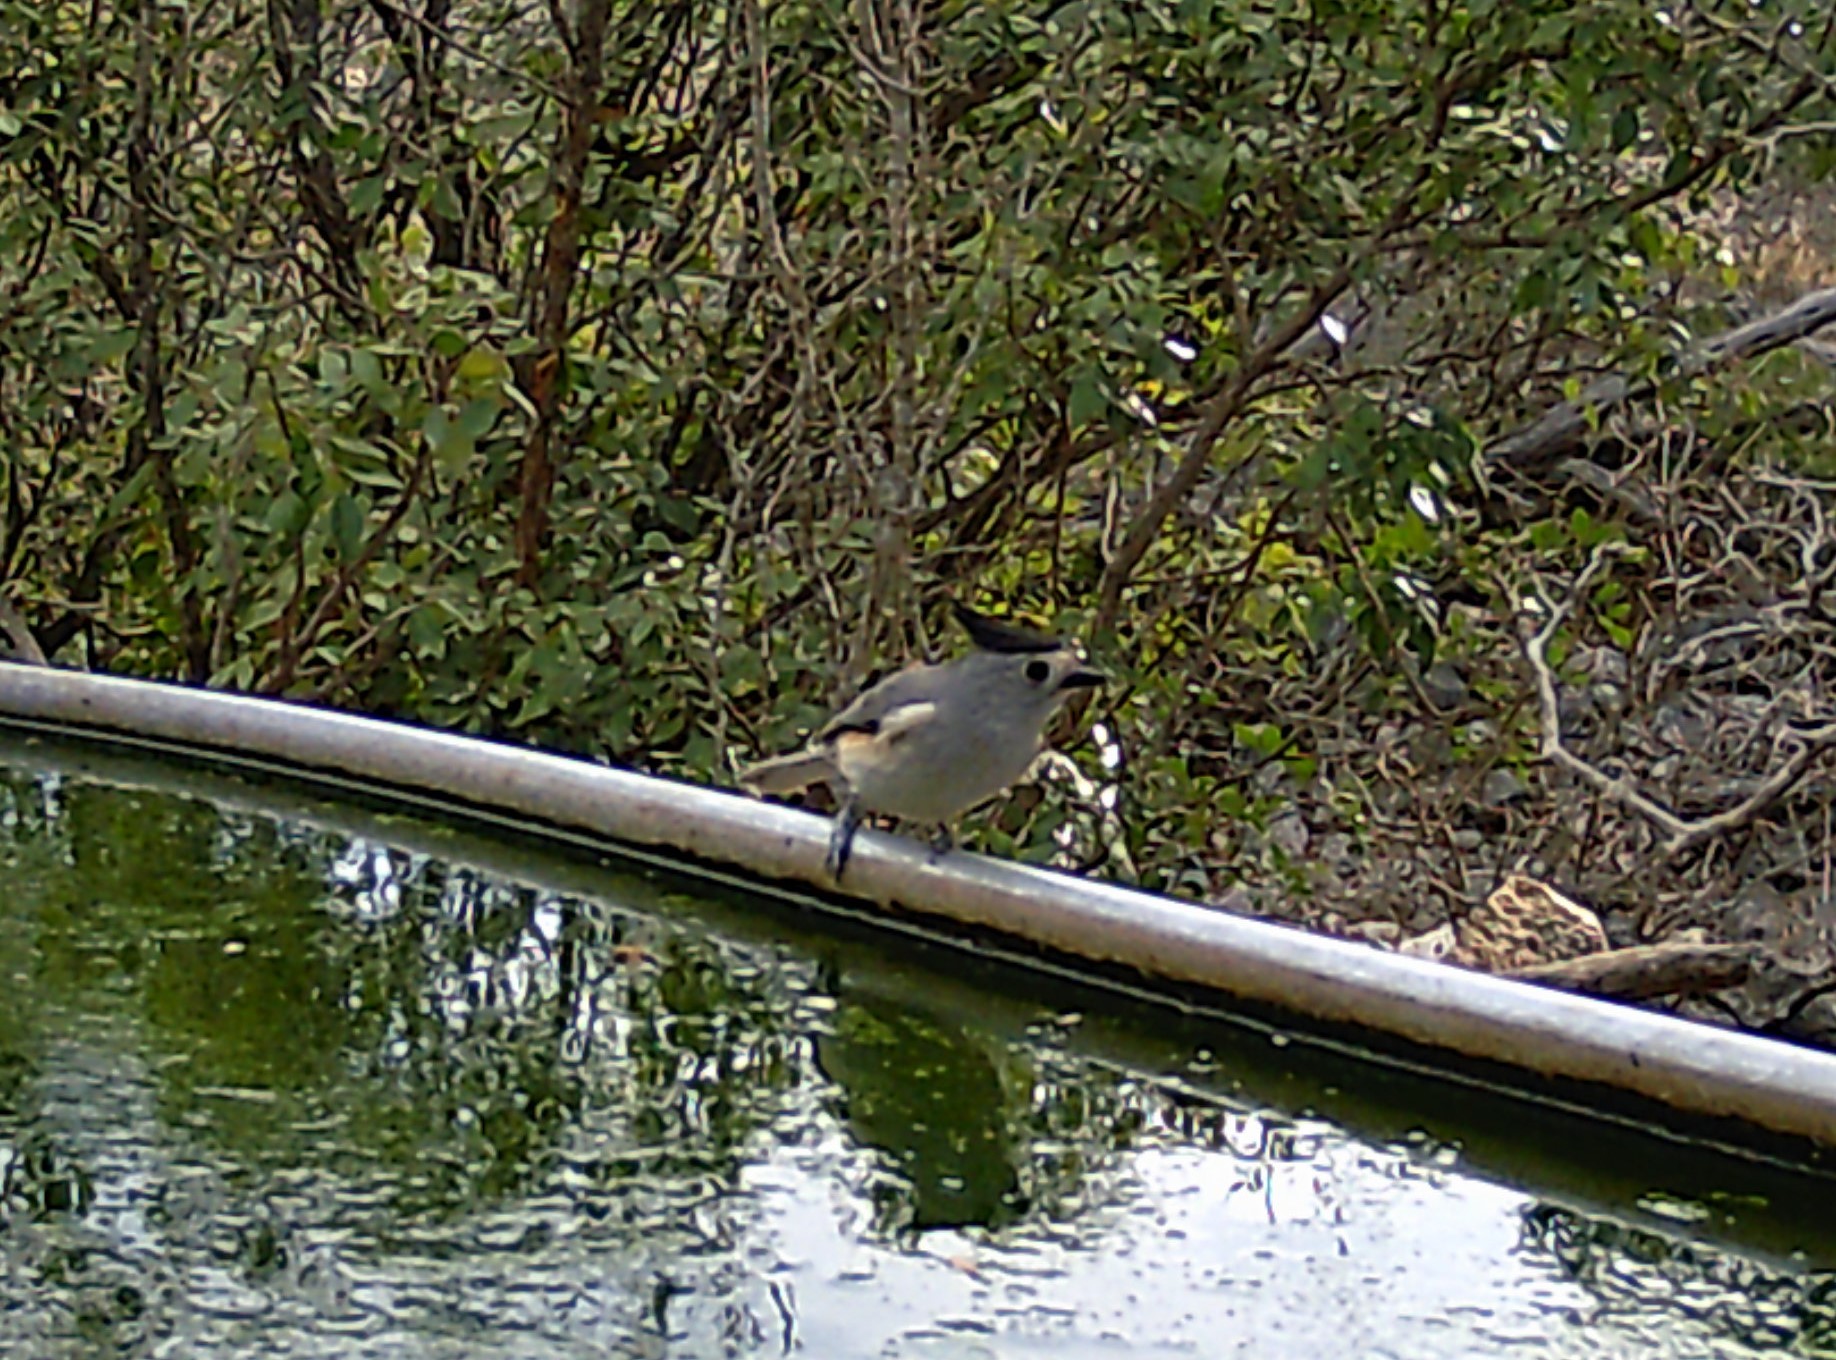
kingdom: Animalia
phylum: Chordata
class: Aves
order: Passeriformes
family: Paridae
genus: Baeolophus
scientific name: Baeolophus atricristatus
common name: Black-crested titmouse
